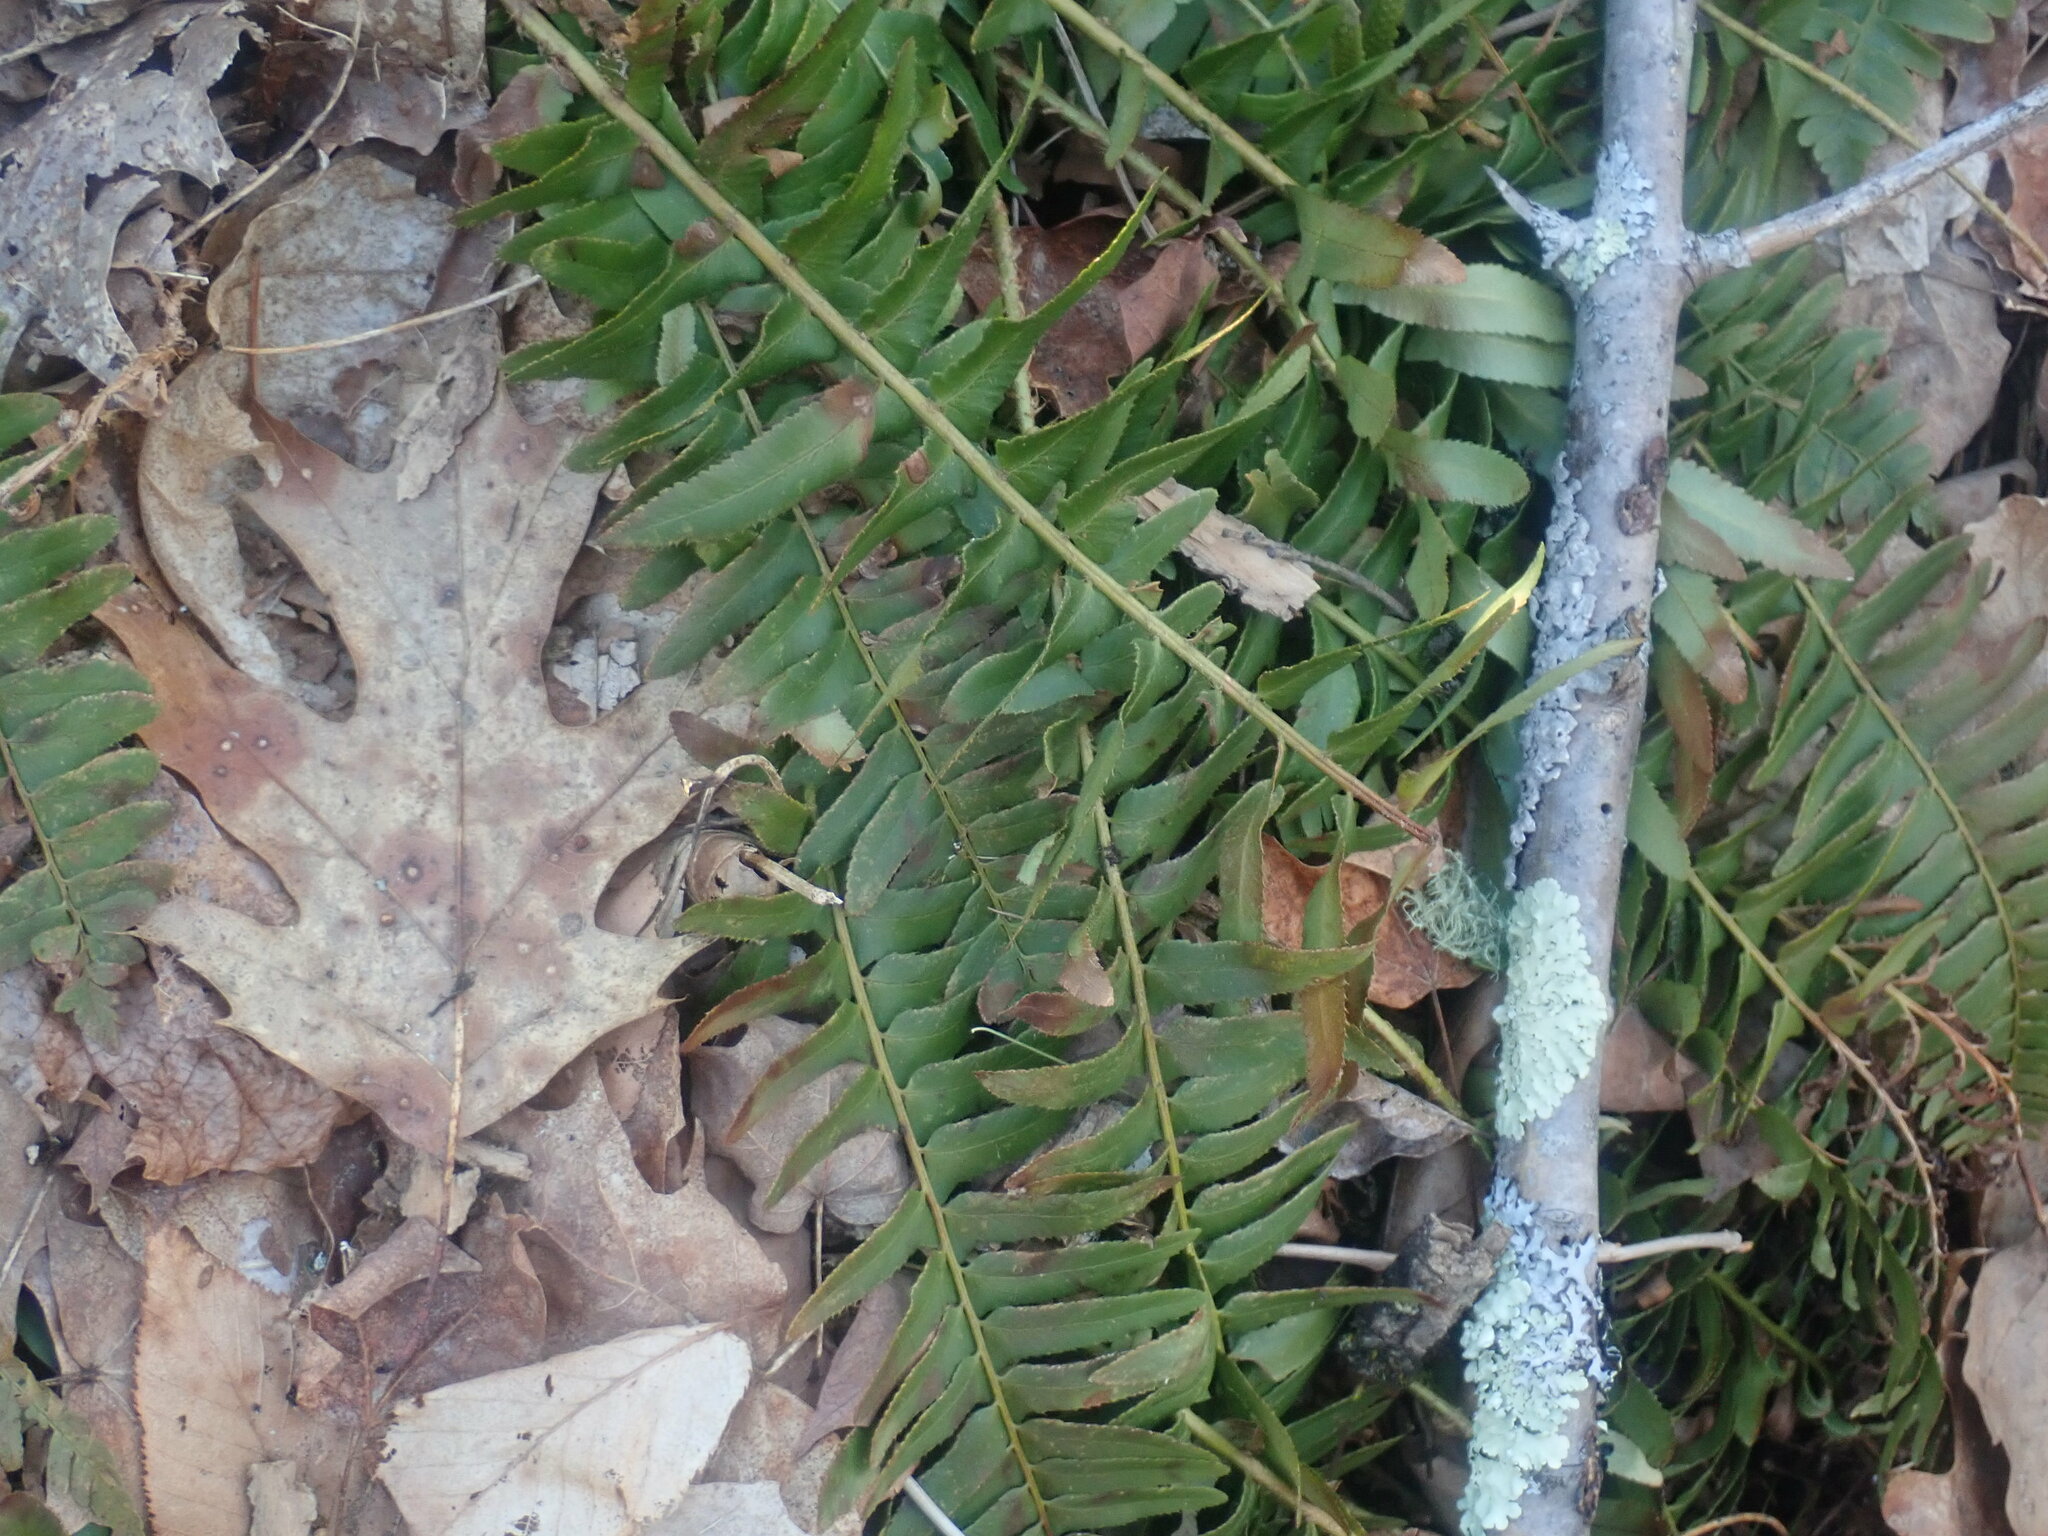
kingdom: Plantae
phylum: Tracheophyta
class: Polypodiopsida
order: Polypodiales
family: Dryopteridaceae
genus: Polystichum
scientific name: Polystichum acrostichoides
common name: Christmas fern
